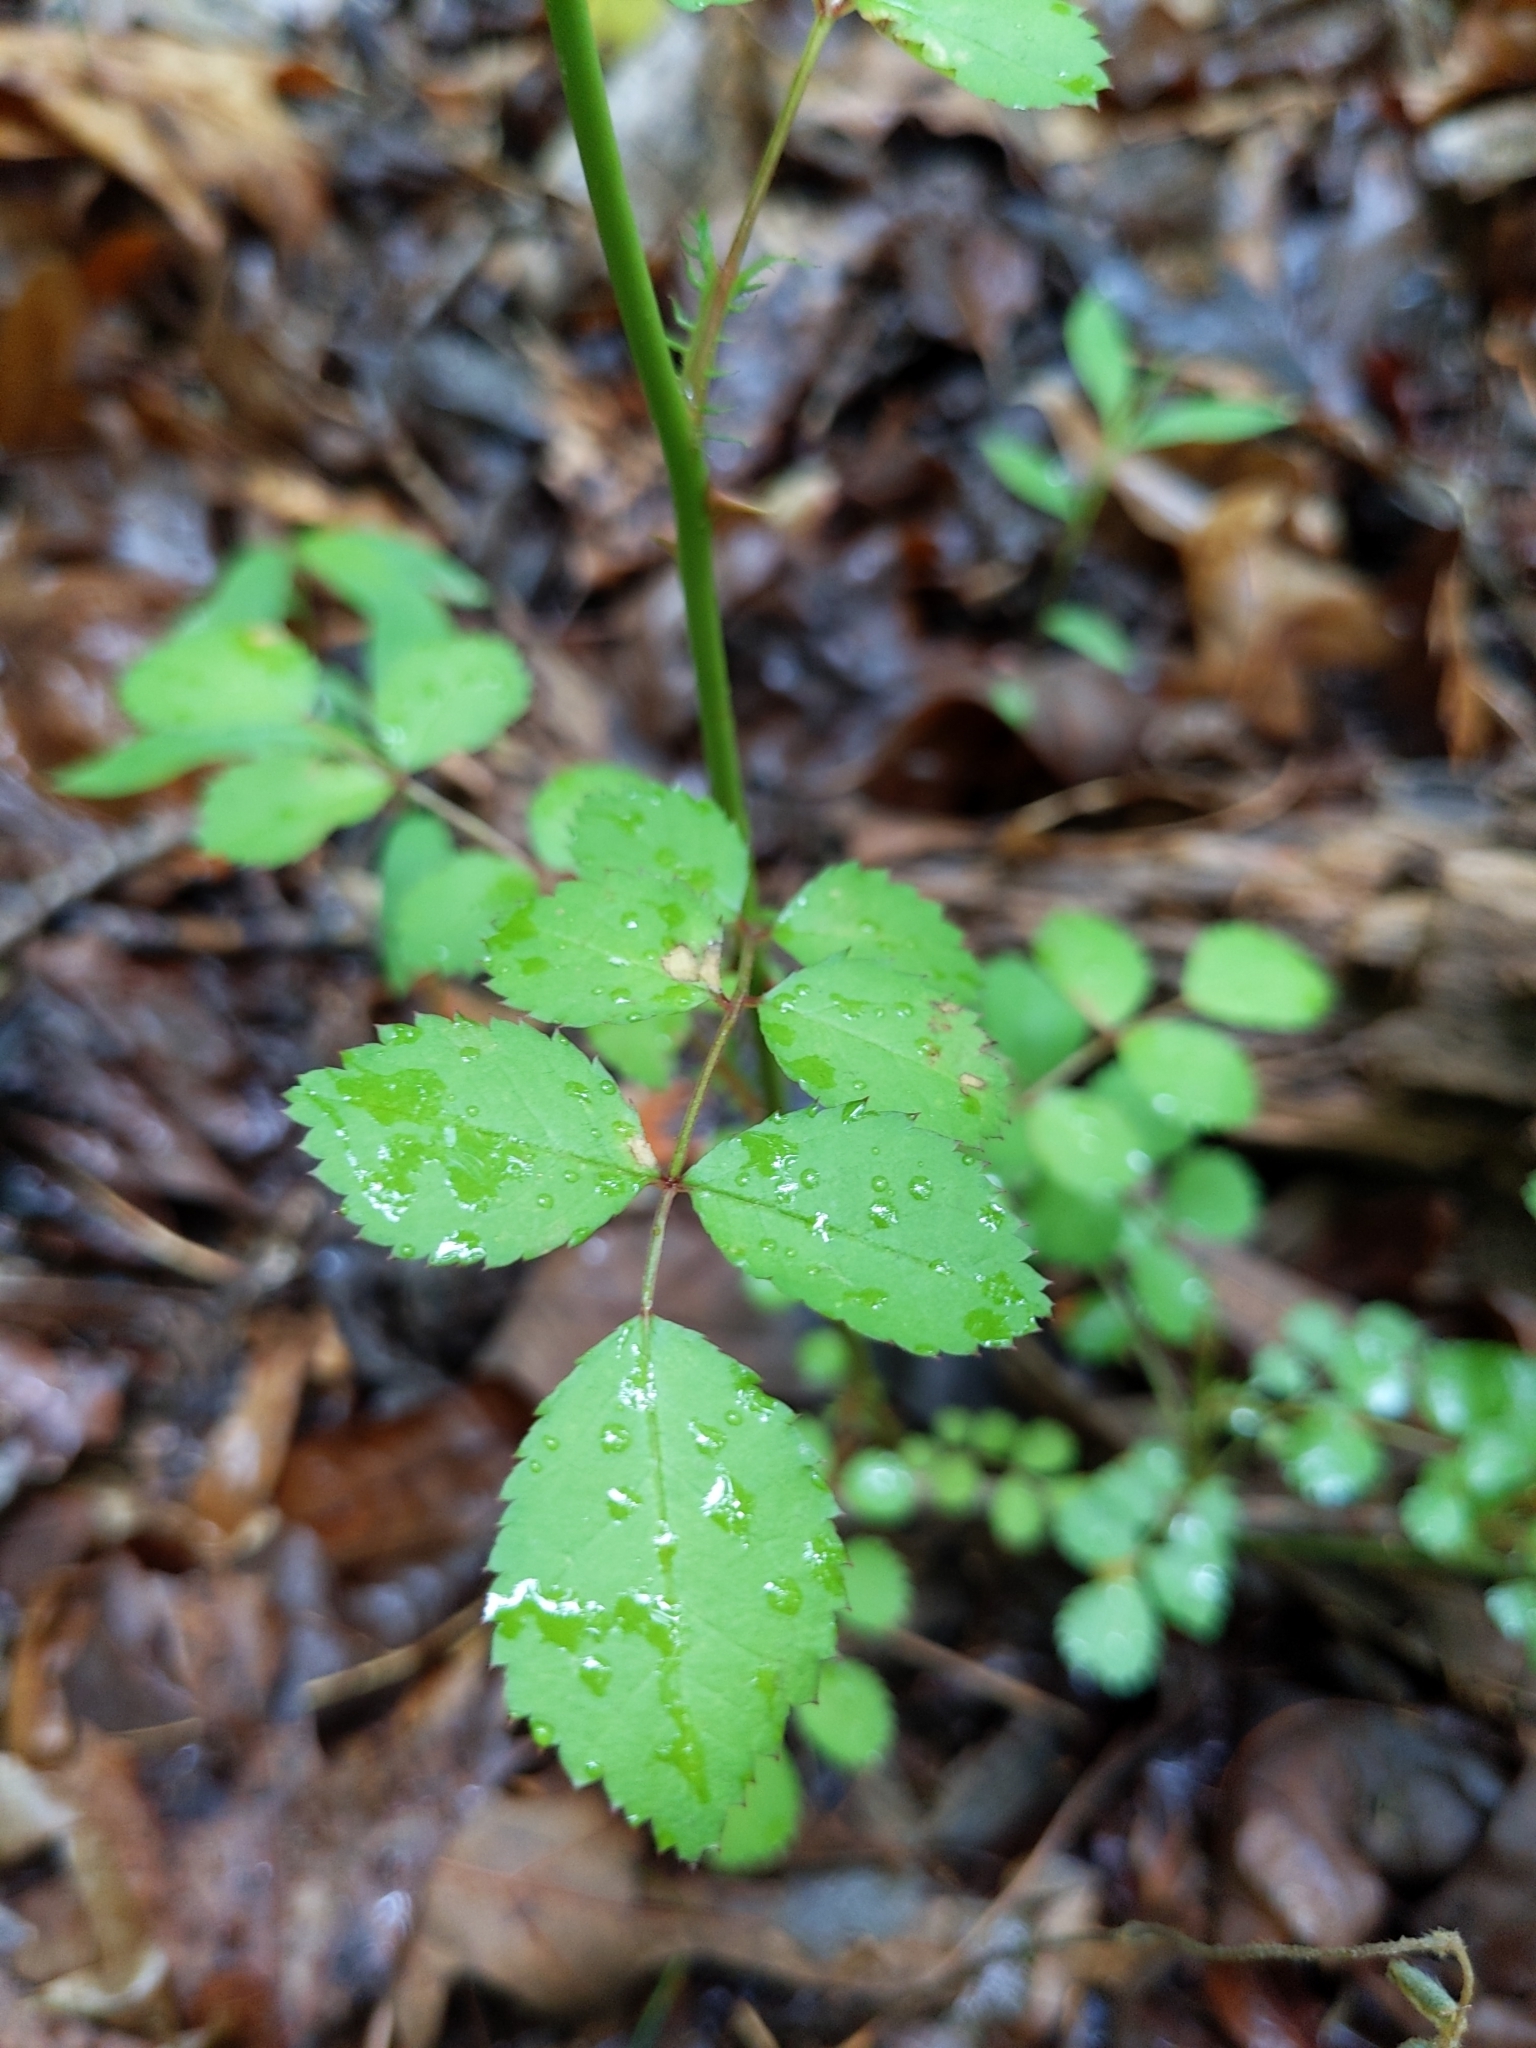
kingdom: Plantae
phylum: Tracheophyta
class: Magnoliopsida
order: Rosales
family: Rosaceae
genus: Rosa
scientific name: Rosa multiflora
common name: Multiflora rose
